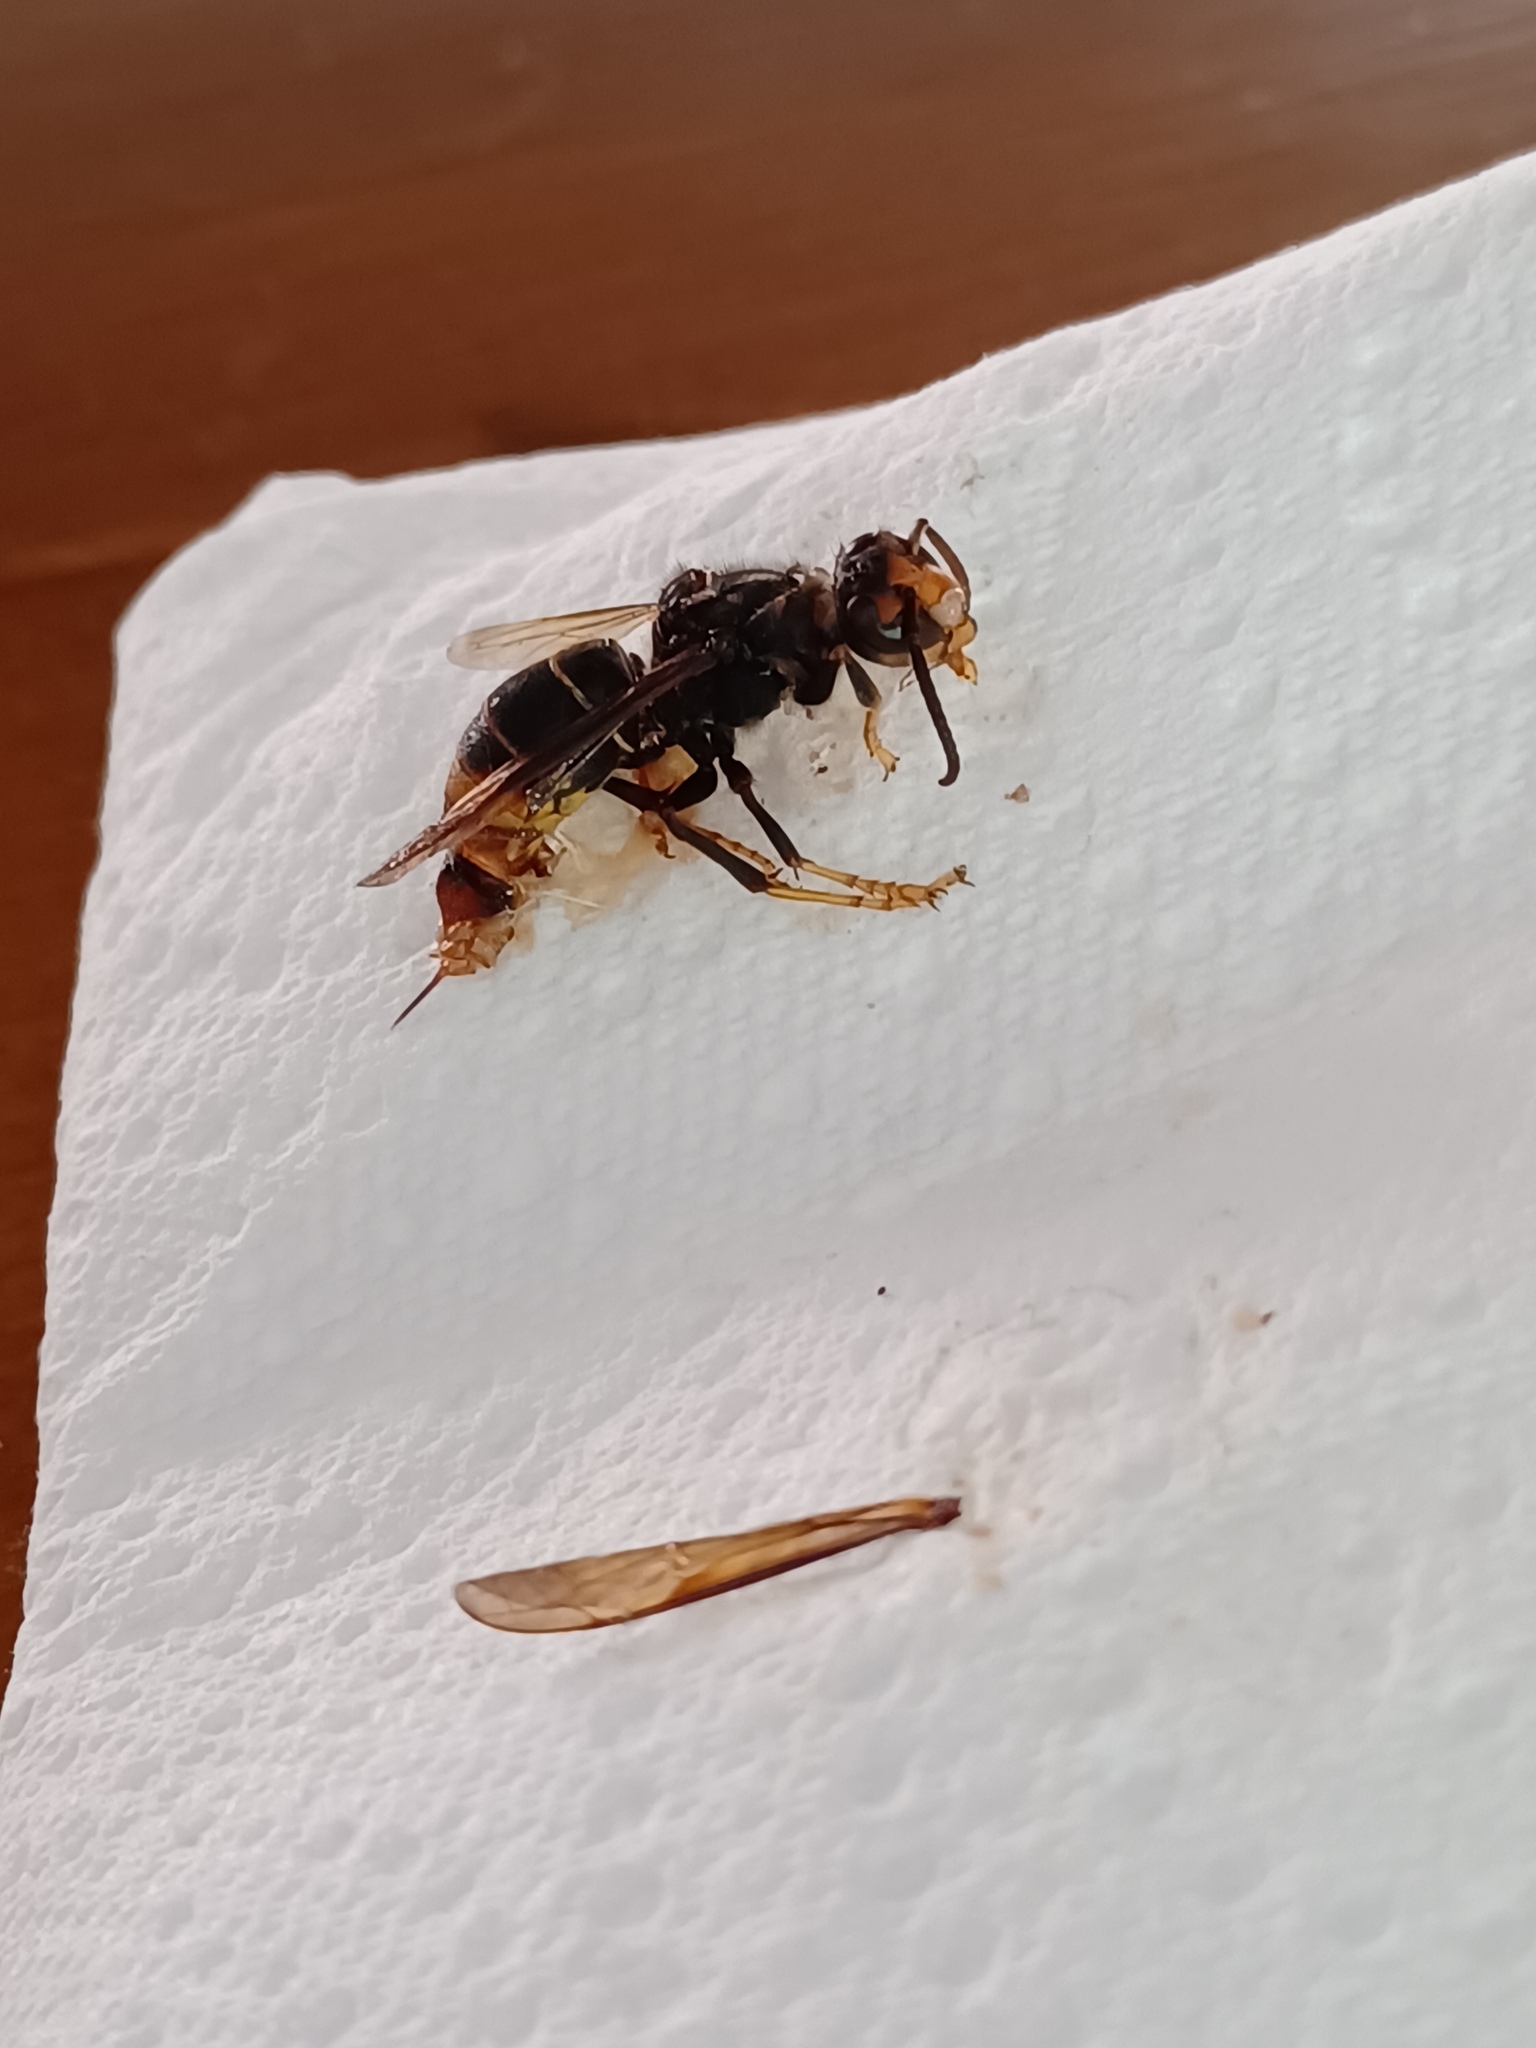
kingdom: Animalia
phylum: Arthropoda
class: Insecta
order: Hymenoptera
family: Vespidae
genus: Vespa
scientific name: Vespa velutina
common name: Asian hornet
